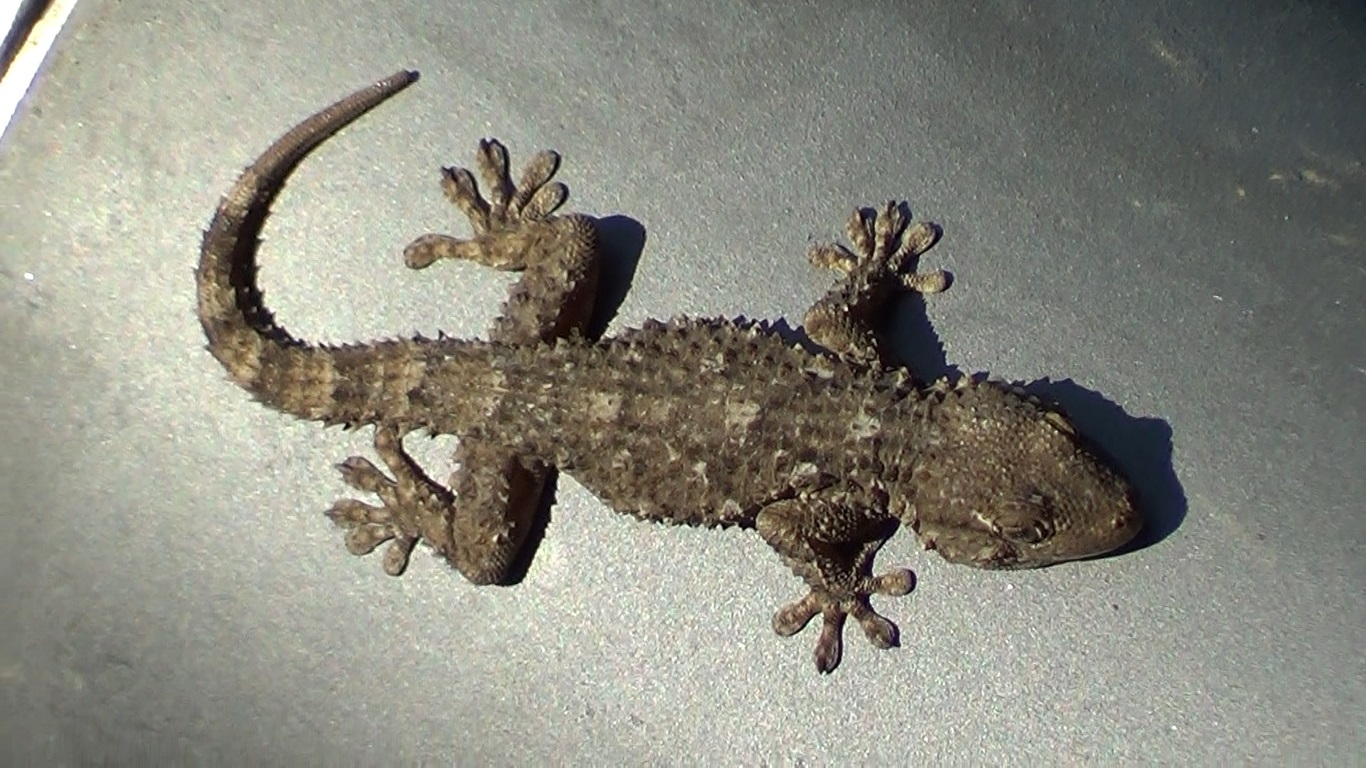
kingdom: Animalia
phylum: Chordata
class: Squamata
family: Phyllodactylidae
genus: Tarentola
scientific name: Tarentola mauritanica
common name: Moorish gecko
